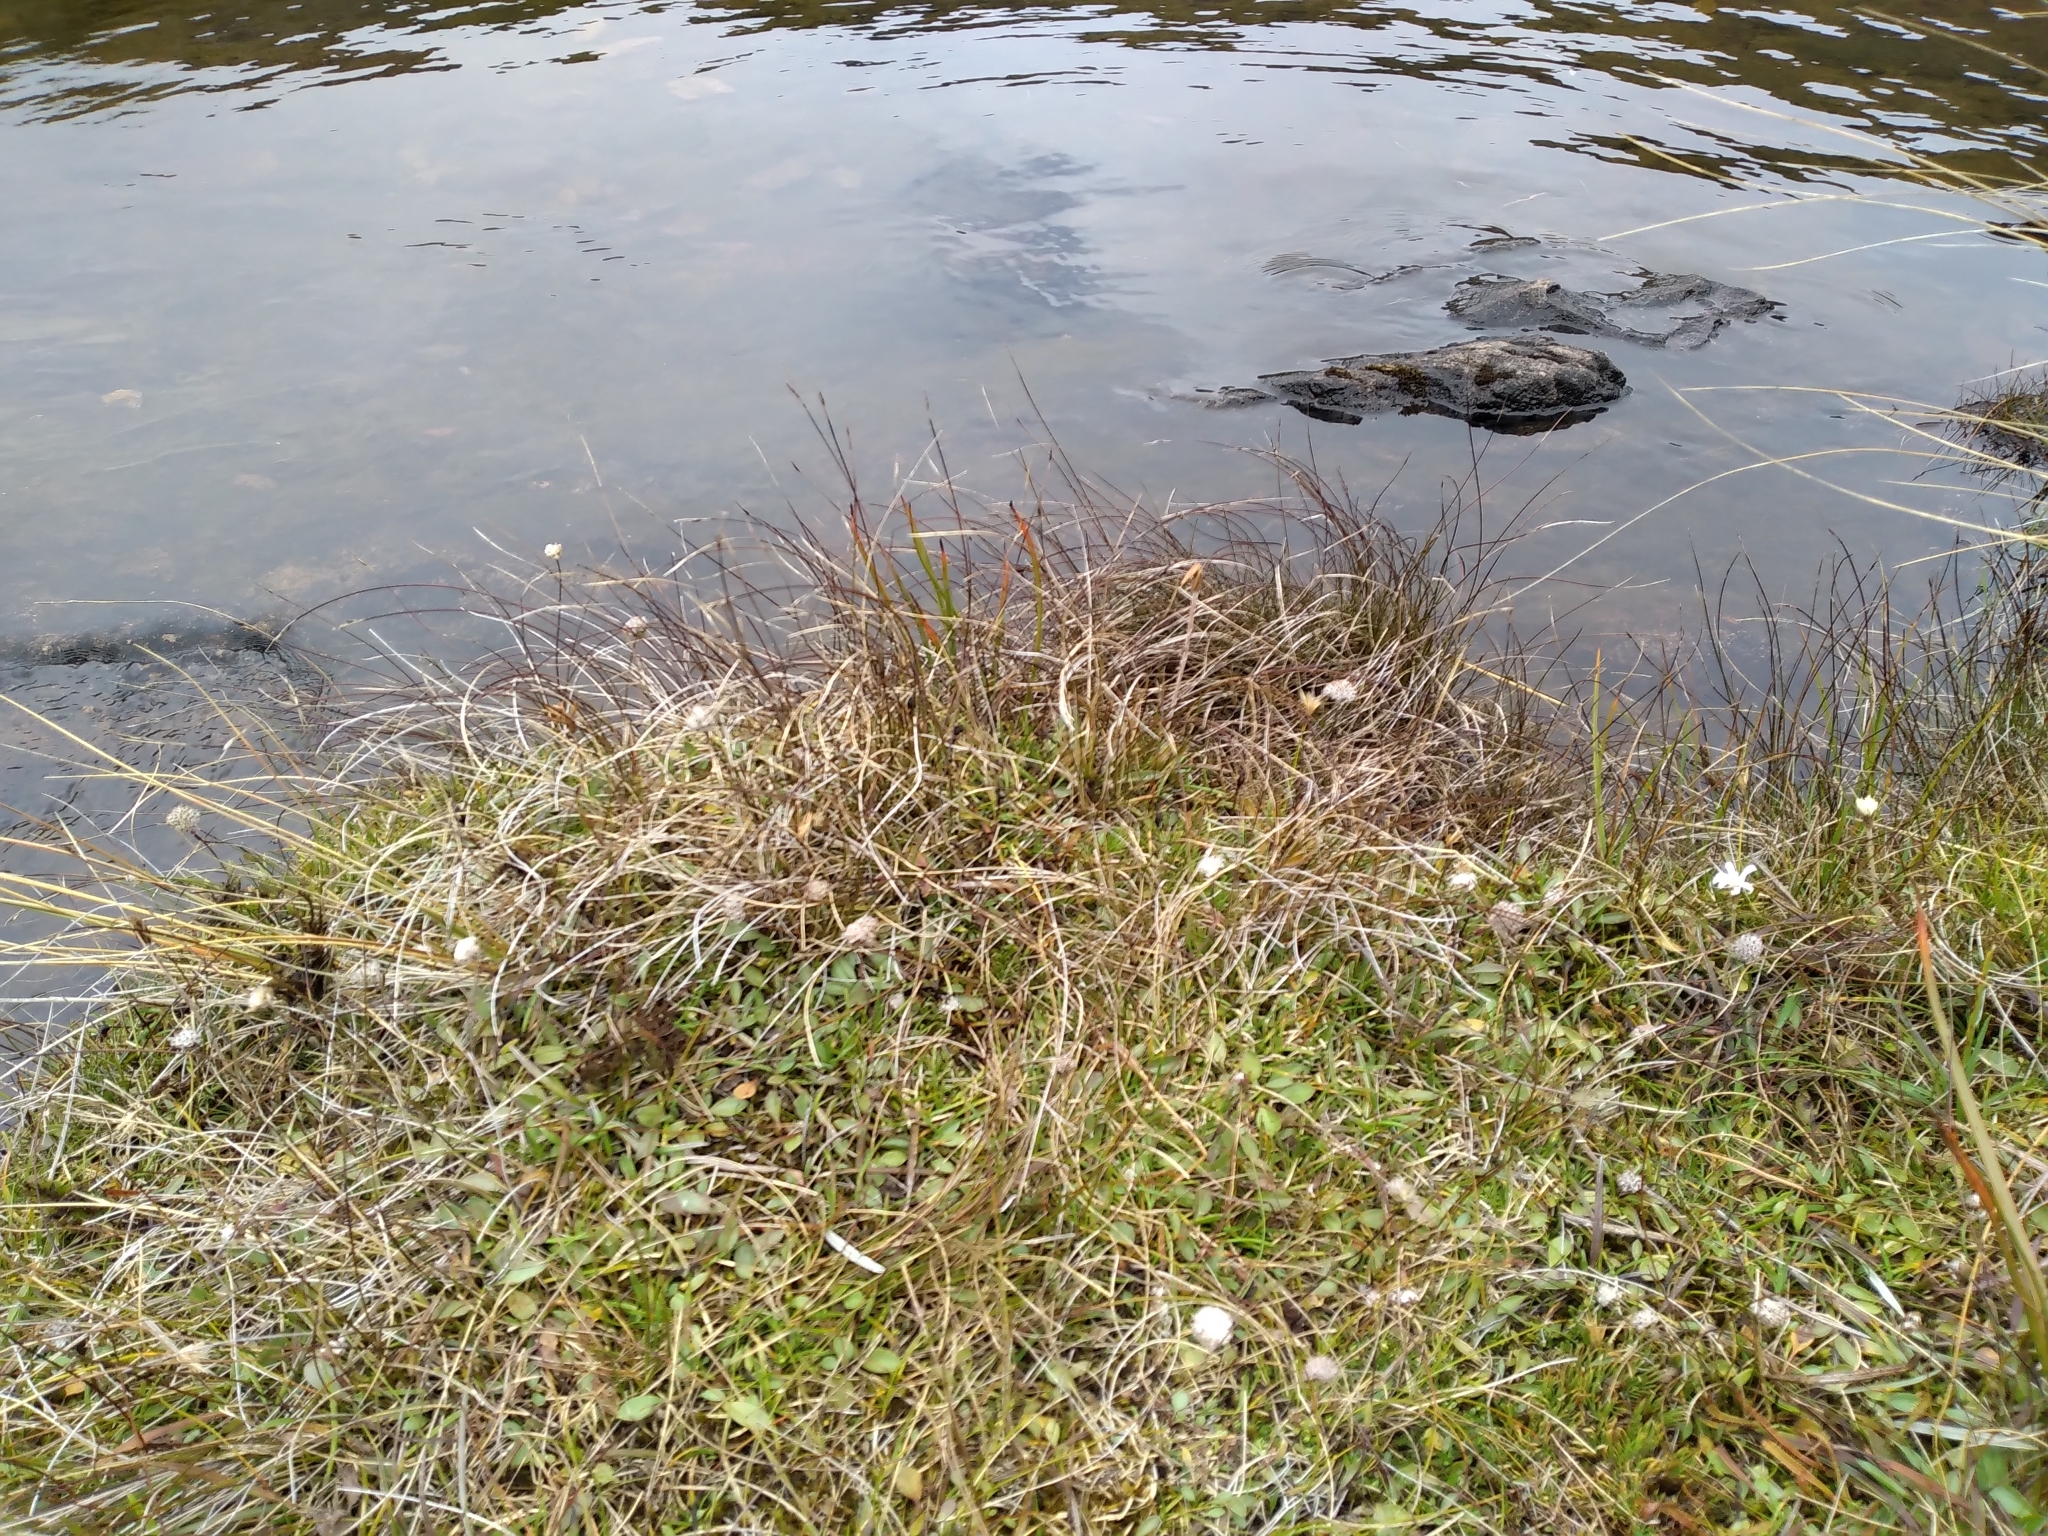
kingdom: Plantae
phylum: Tracheophyta
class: Liliopsida
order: Poales
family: Cyperaceae
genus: Schoenus
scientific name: Schoenus pauciflorus
